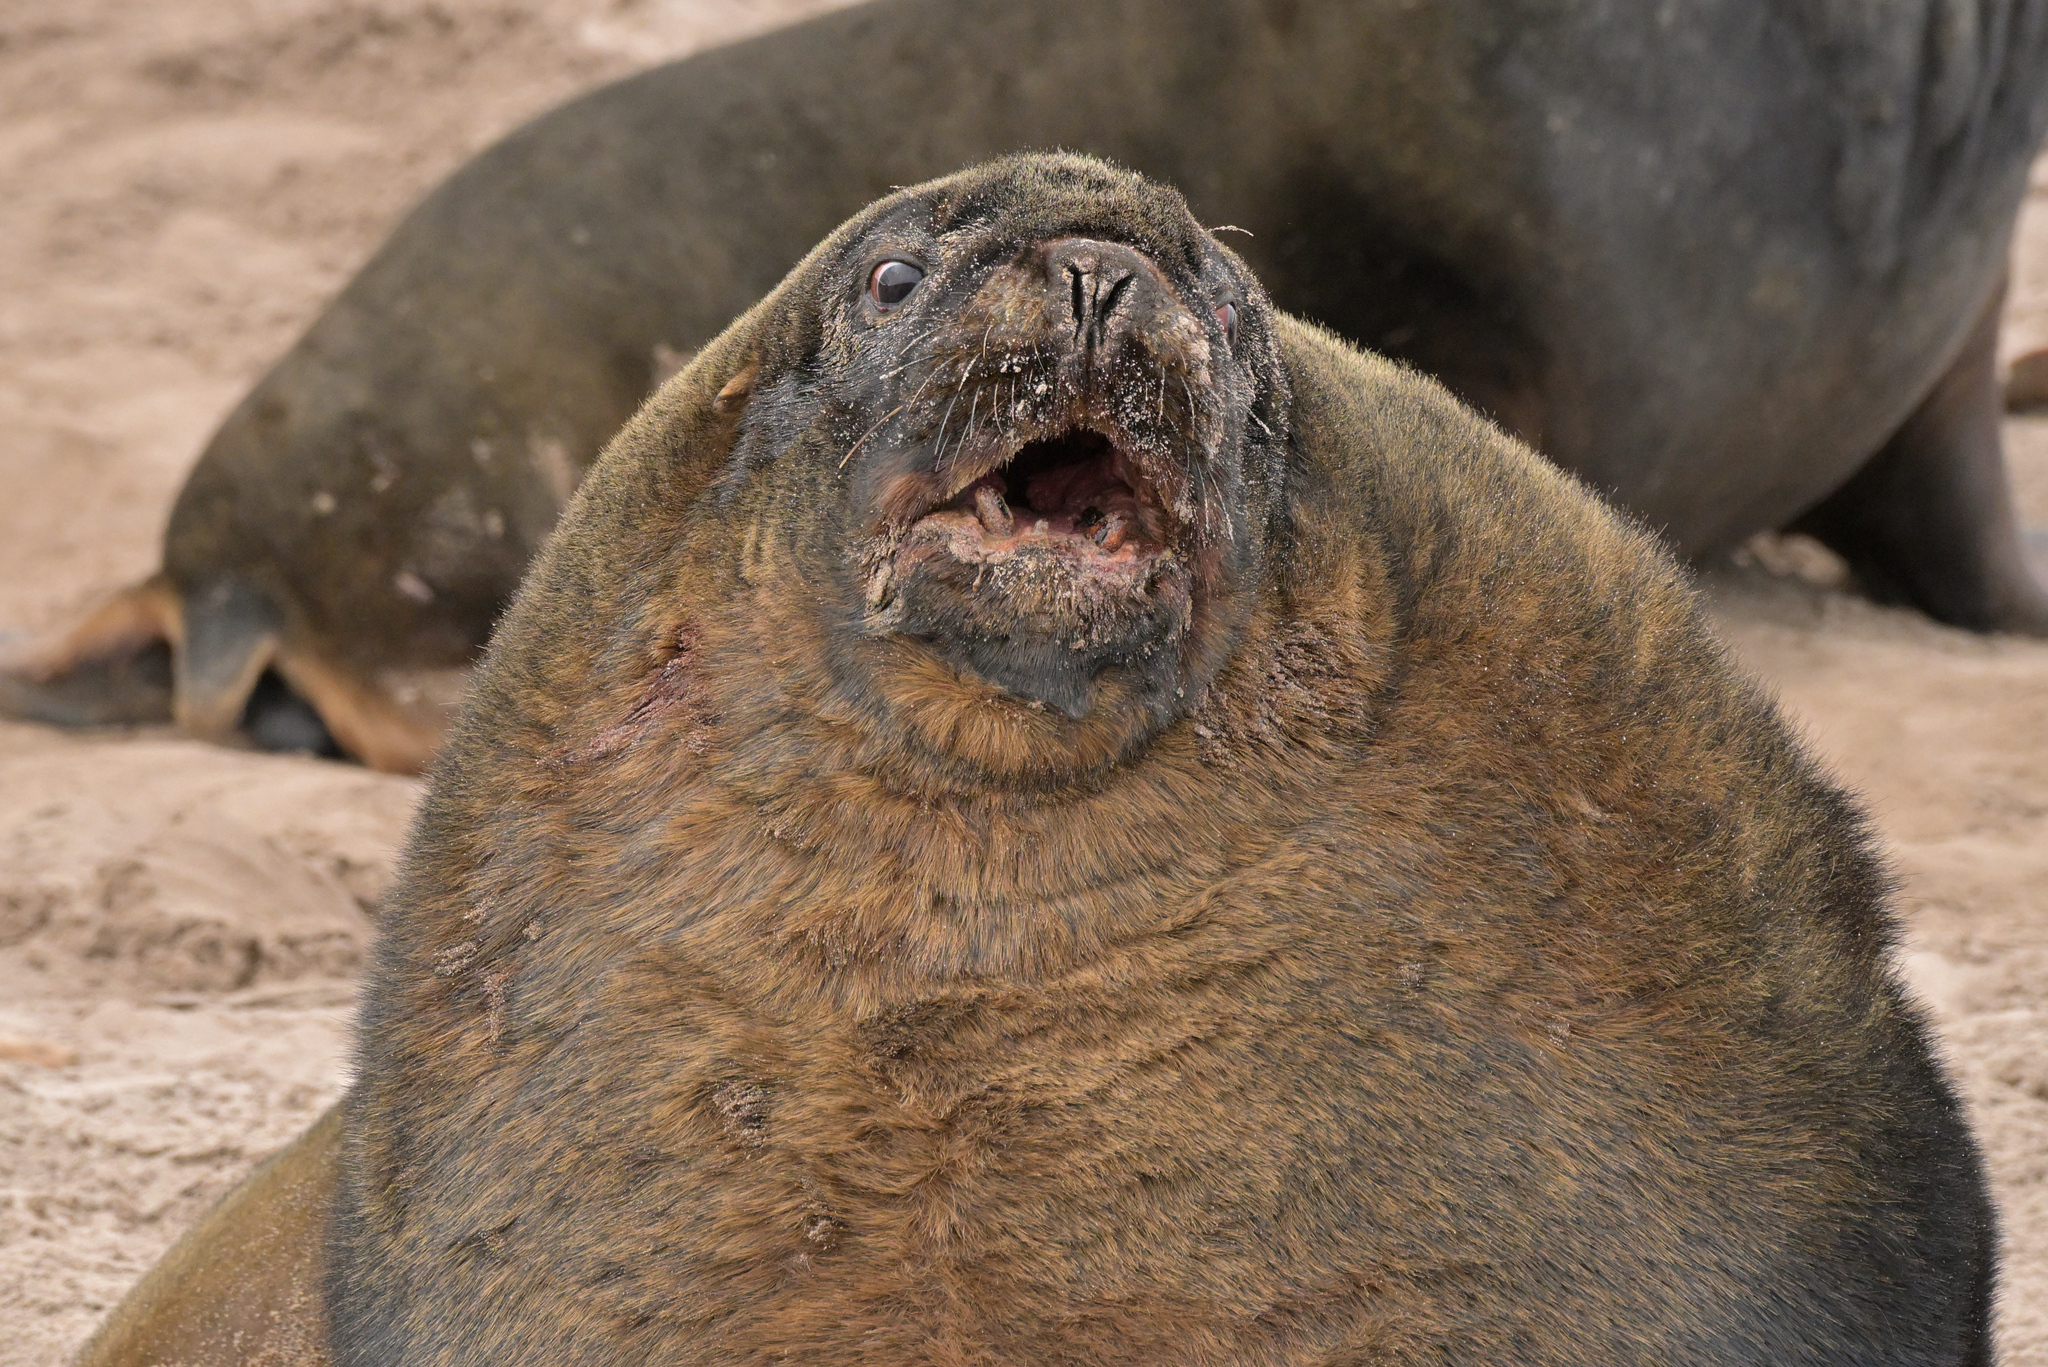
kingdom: Animalia
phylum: Chordata
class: Mammalia
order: Carnivora
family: Otariidae
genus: Phocarctos
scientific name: Phocarctos hookeri
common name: New zealand sea lion
